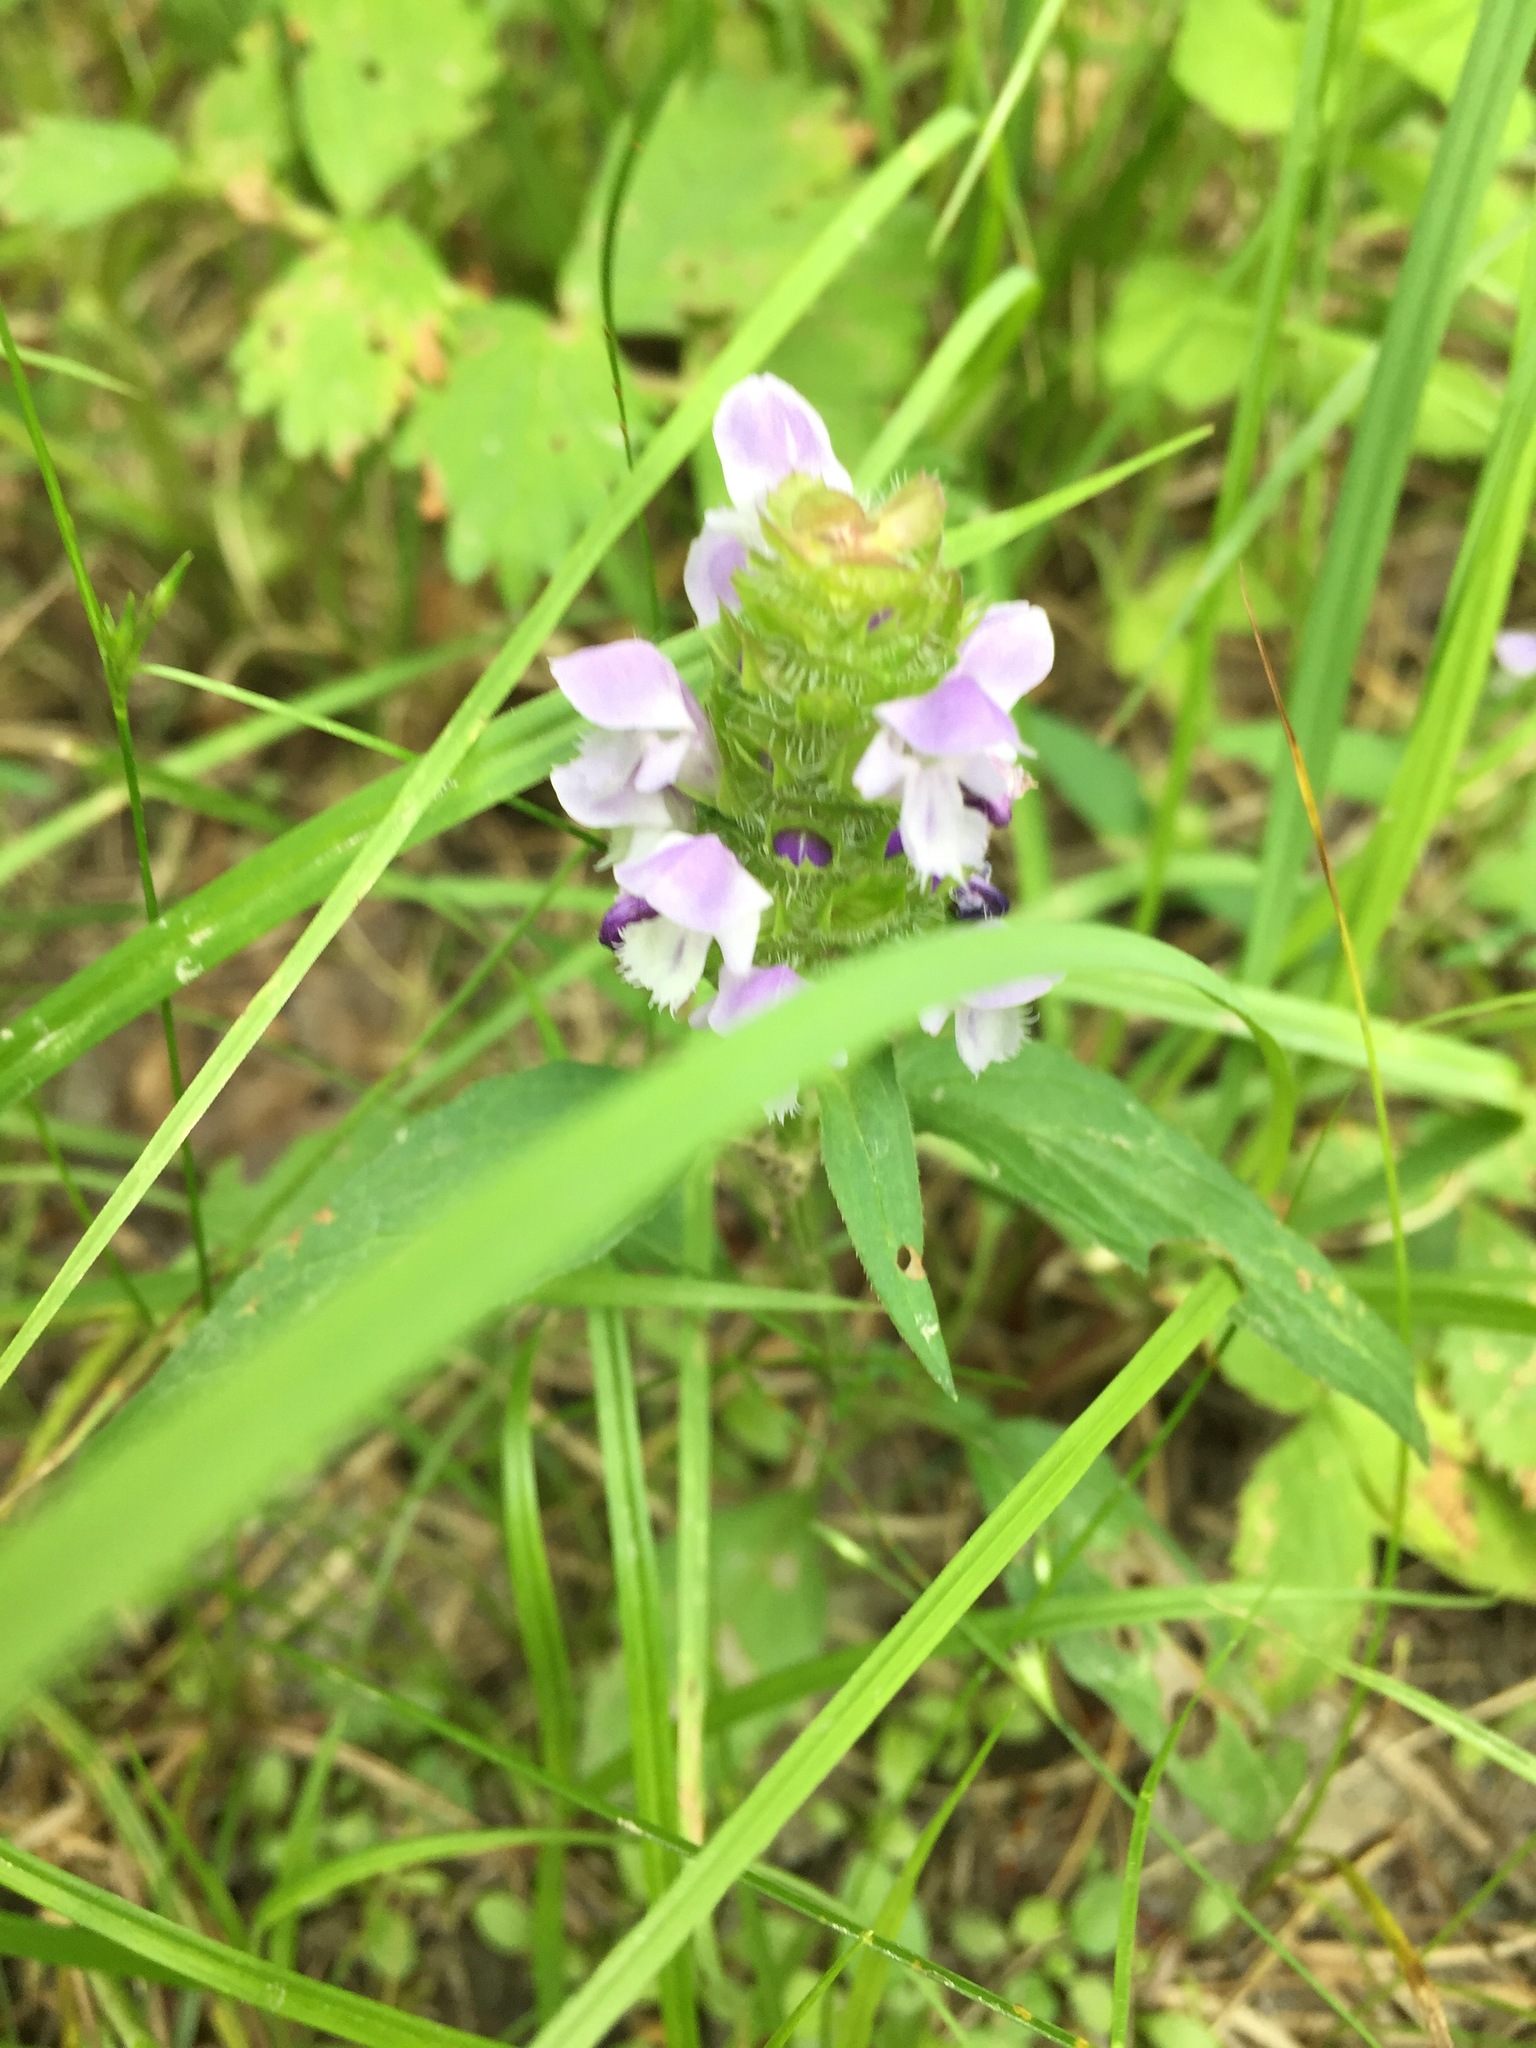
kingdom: Plantae
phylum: Tracheophyta
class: Magnoliopsida
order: Lamiales
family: Lamiaceae
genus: Prunella
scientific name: Prunella vulgaris
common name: Heal-all
